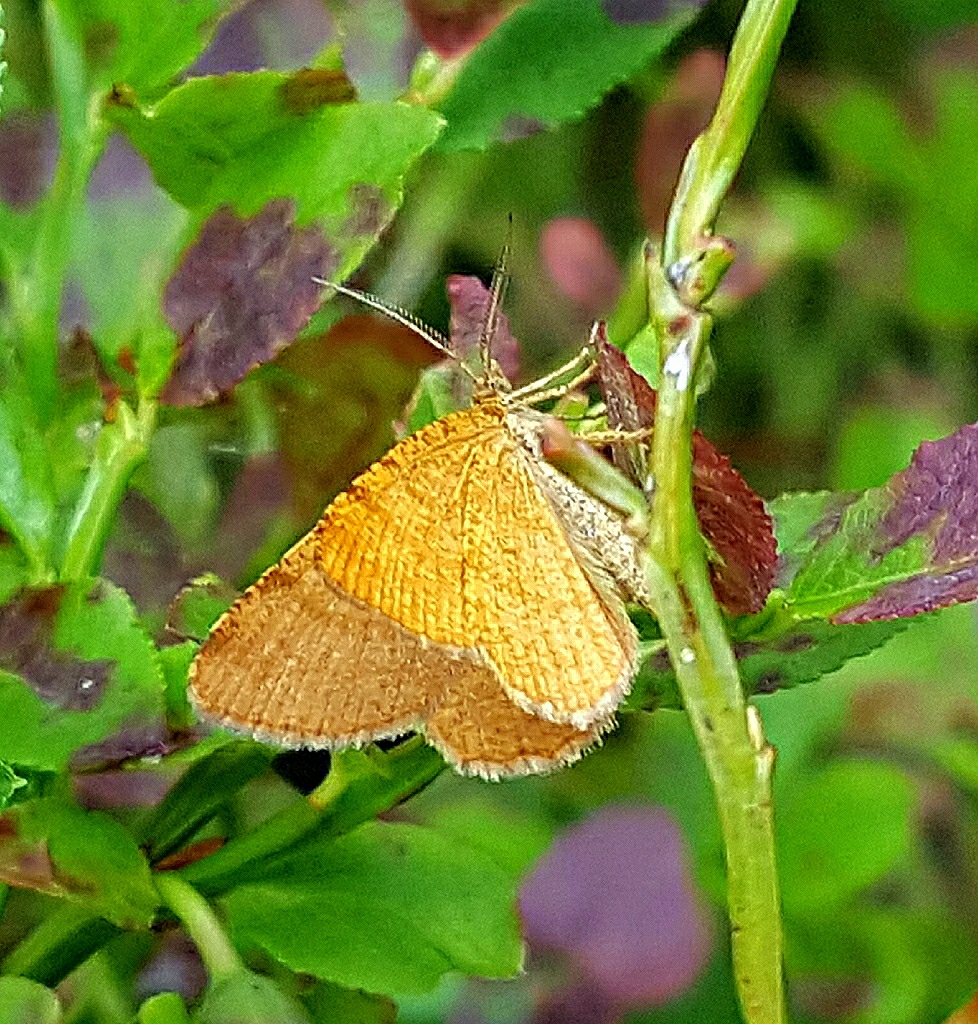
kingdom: Animalia
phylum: Arthropoda
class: Insecta
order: Lepidoptera
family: Geometridae
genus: Macaria
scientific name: Macaria brunneata
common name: Rannoch looper
